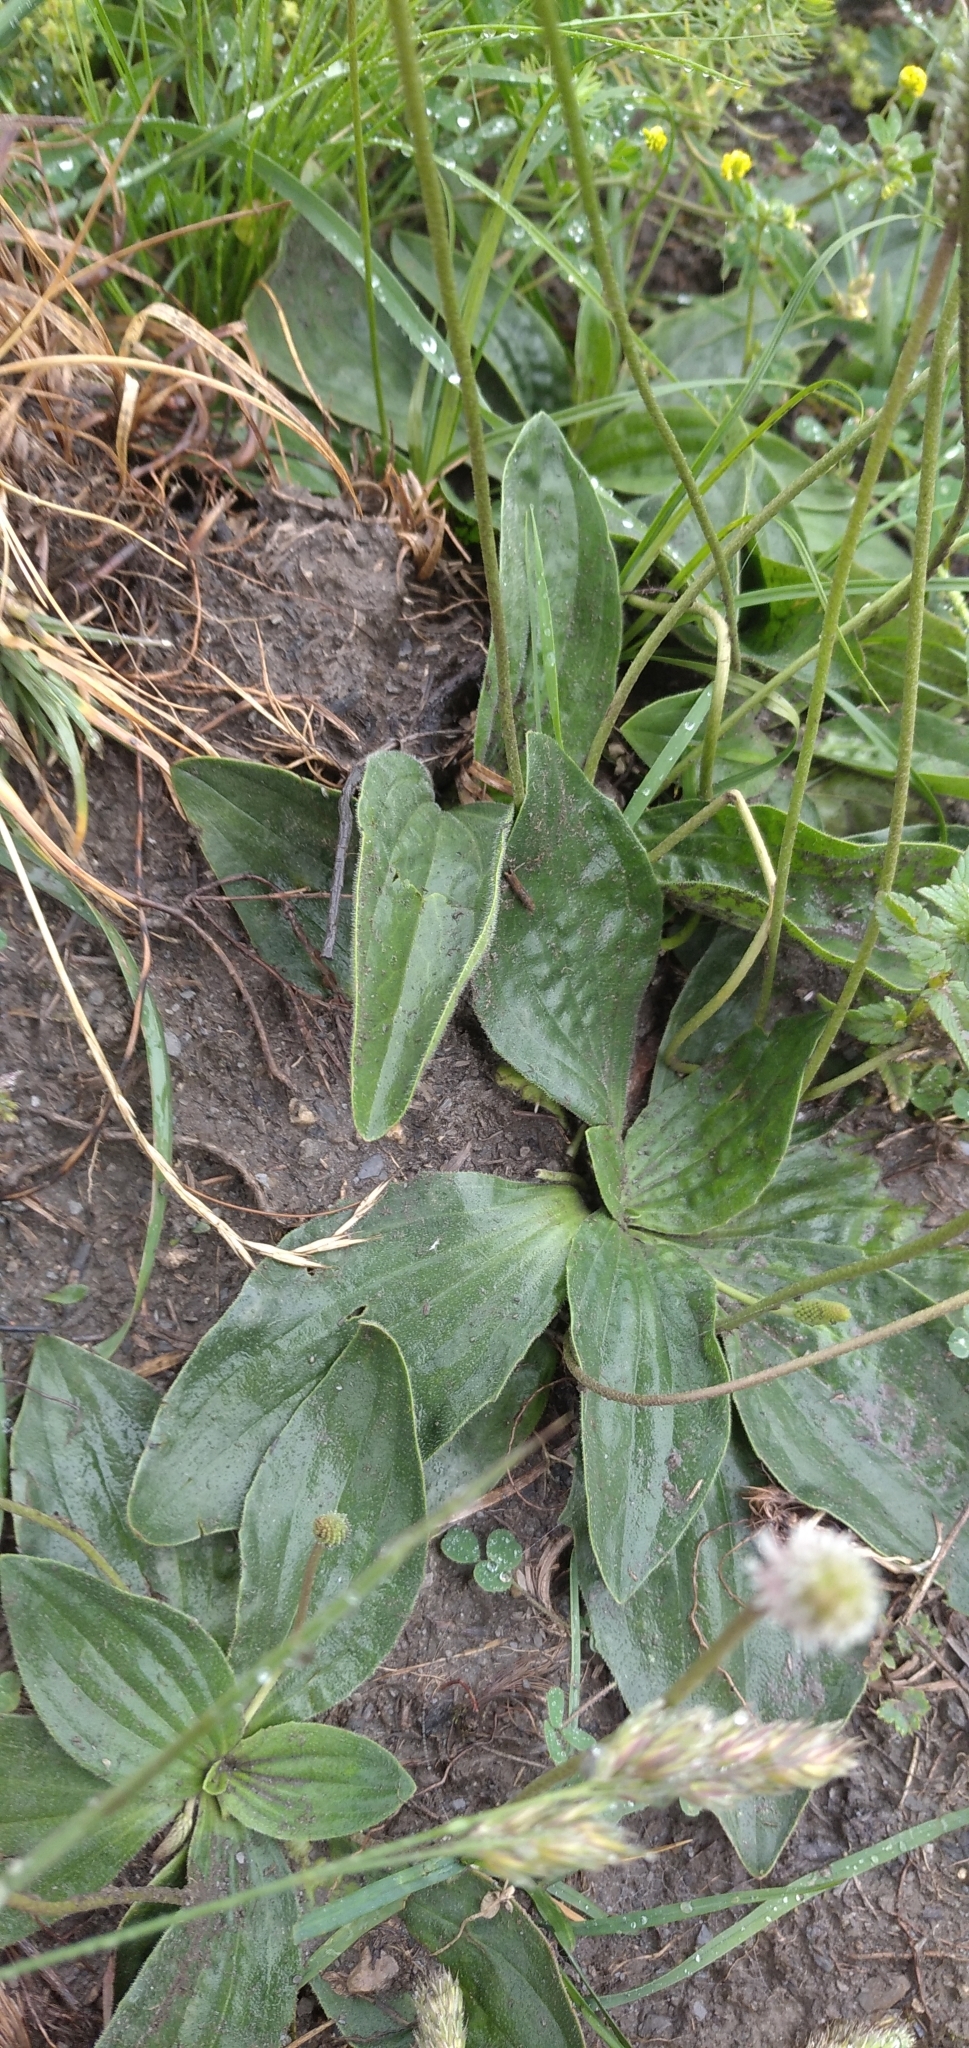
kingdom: Plantae
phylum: Tracheophyta
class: Magnoliopsida
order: Lamiales
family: Plantaginaceae
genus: Plantago
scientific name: Plantago media
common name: Hoary plantain
